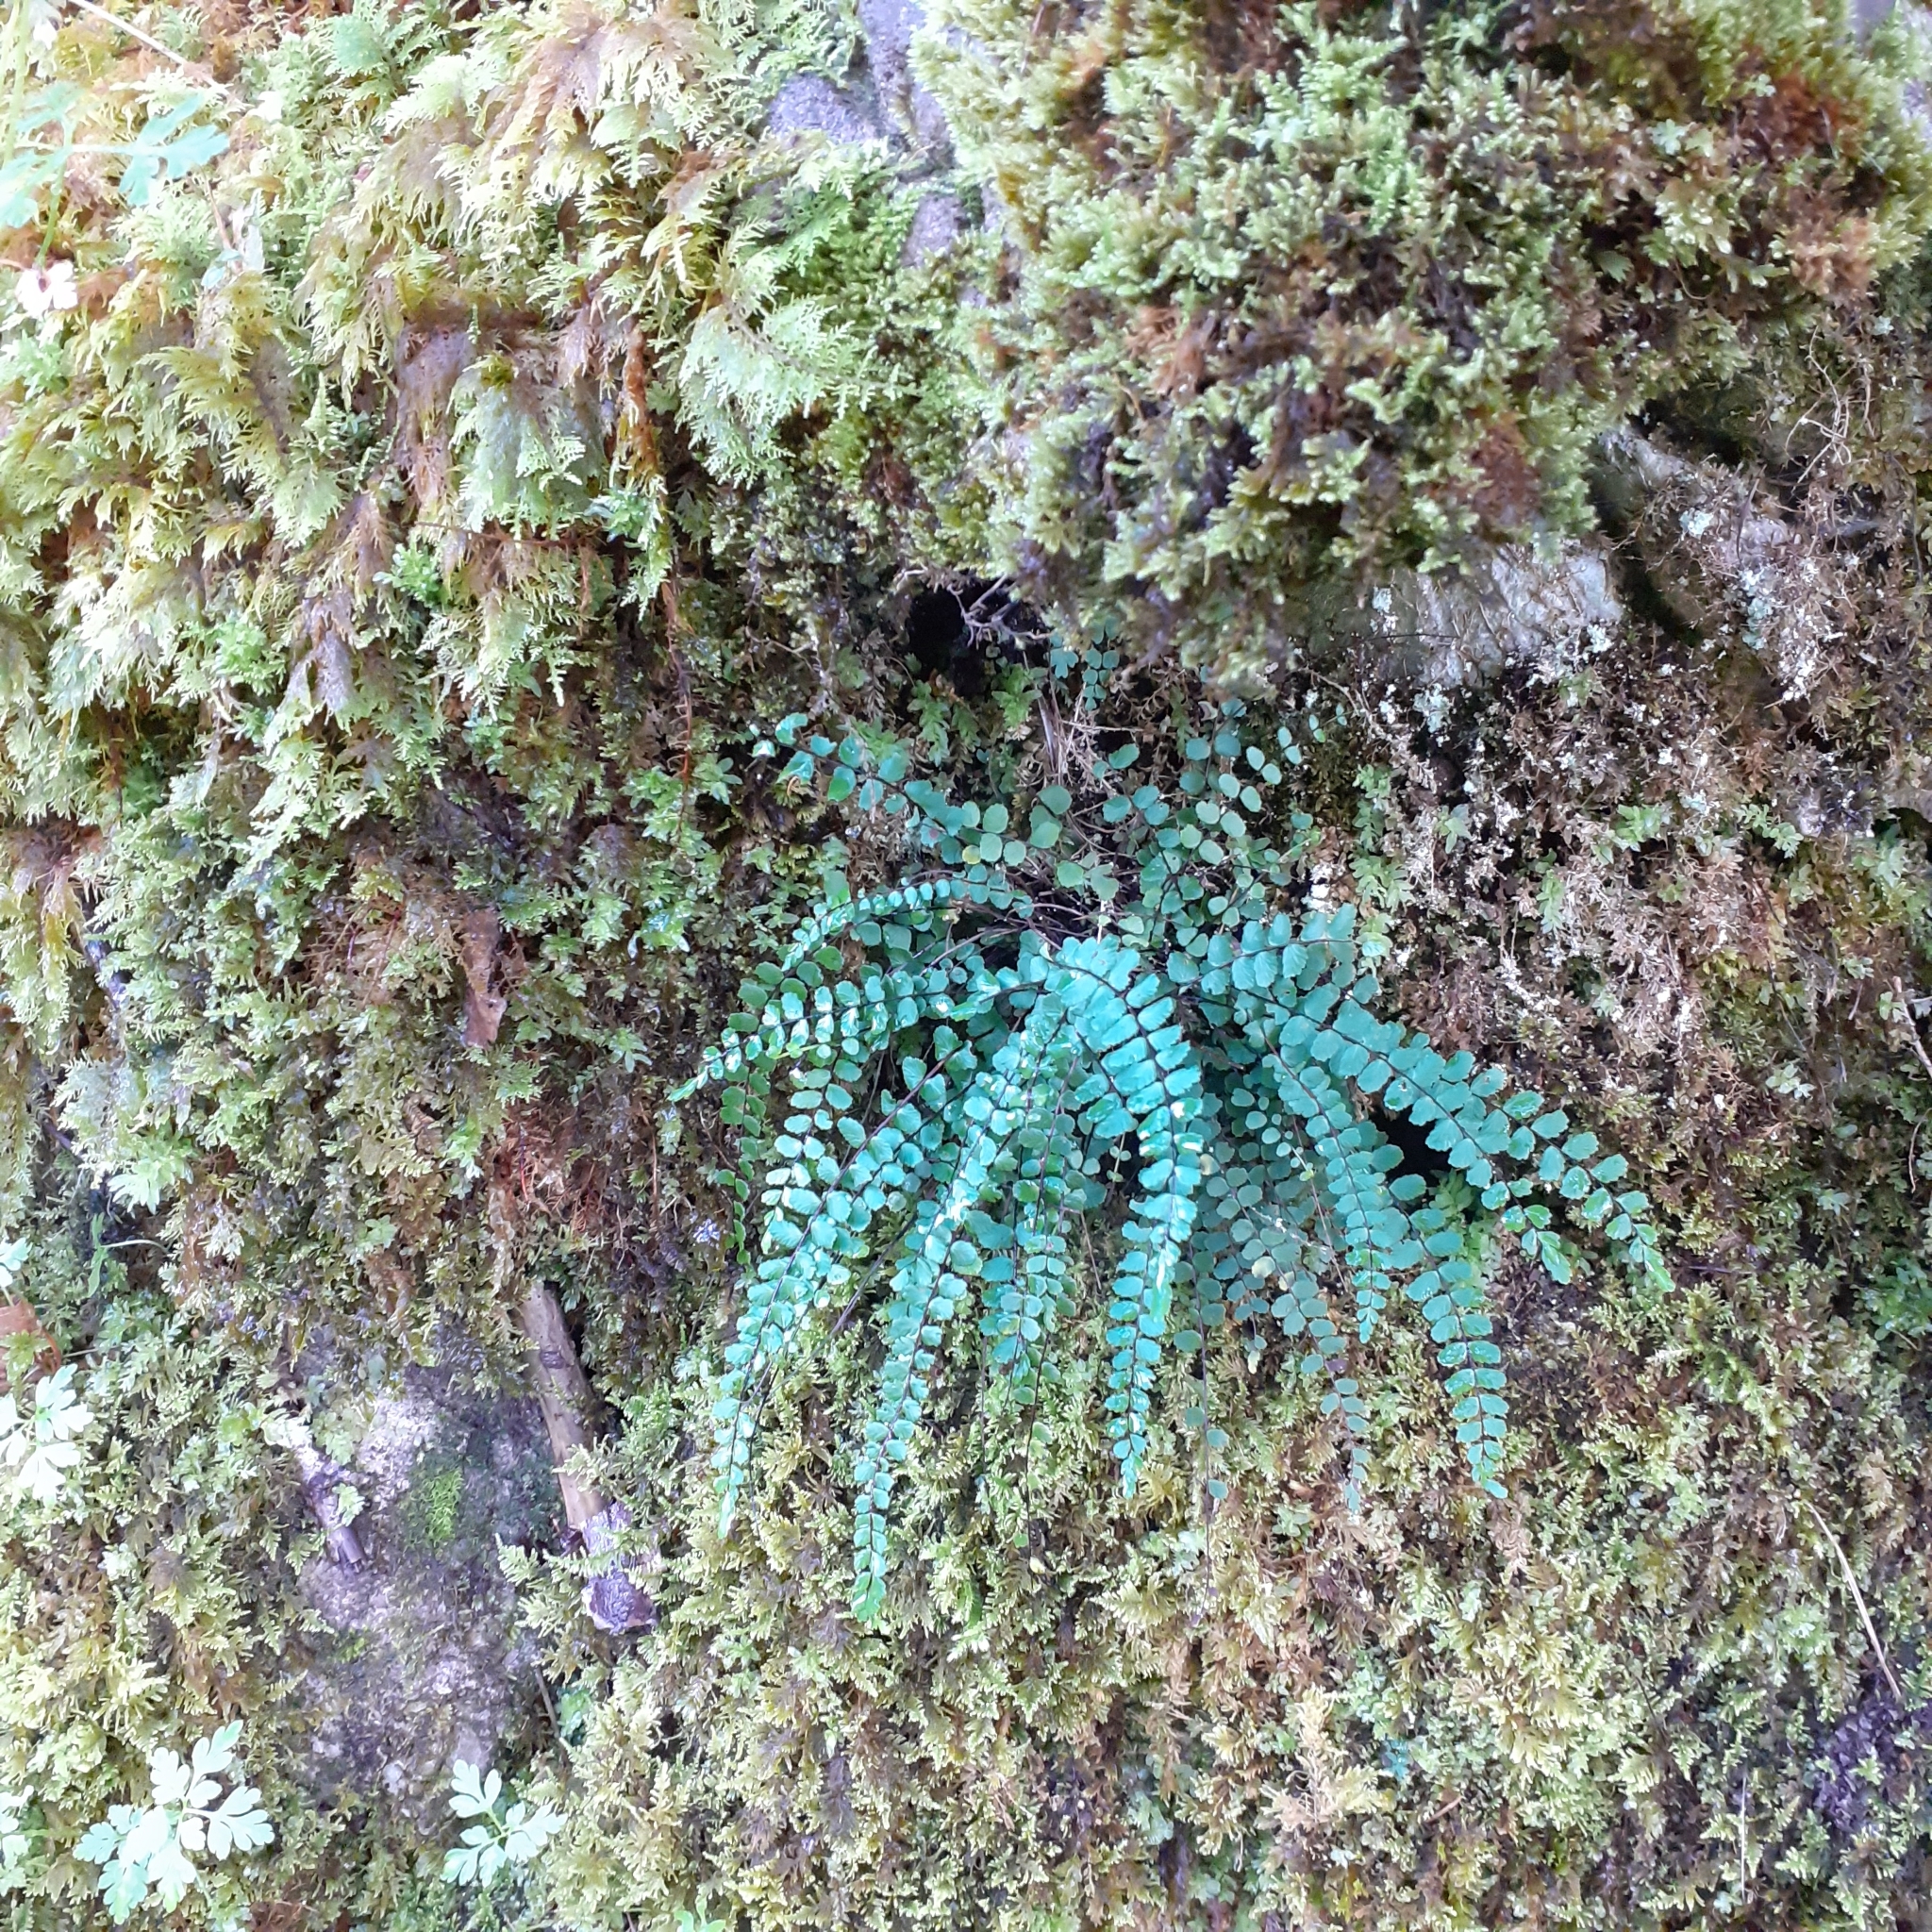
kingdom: Plantae
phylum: Tracheophyta
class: Polypodiopsida
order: Polypodiales
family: Aspleniaceae
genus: Asplenium
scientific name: Asplenium trichomanes
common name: Maidenhair spleenwort
